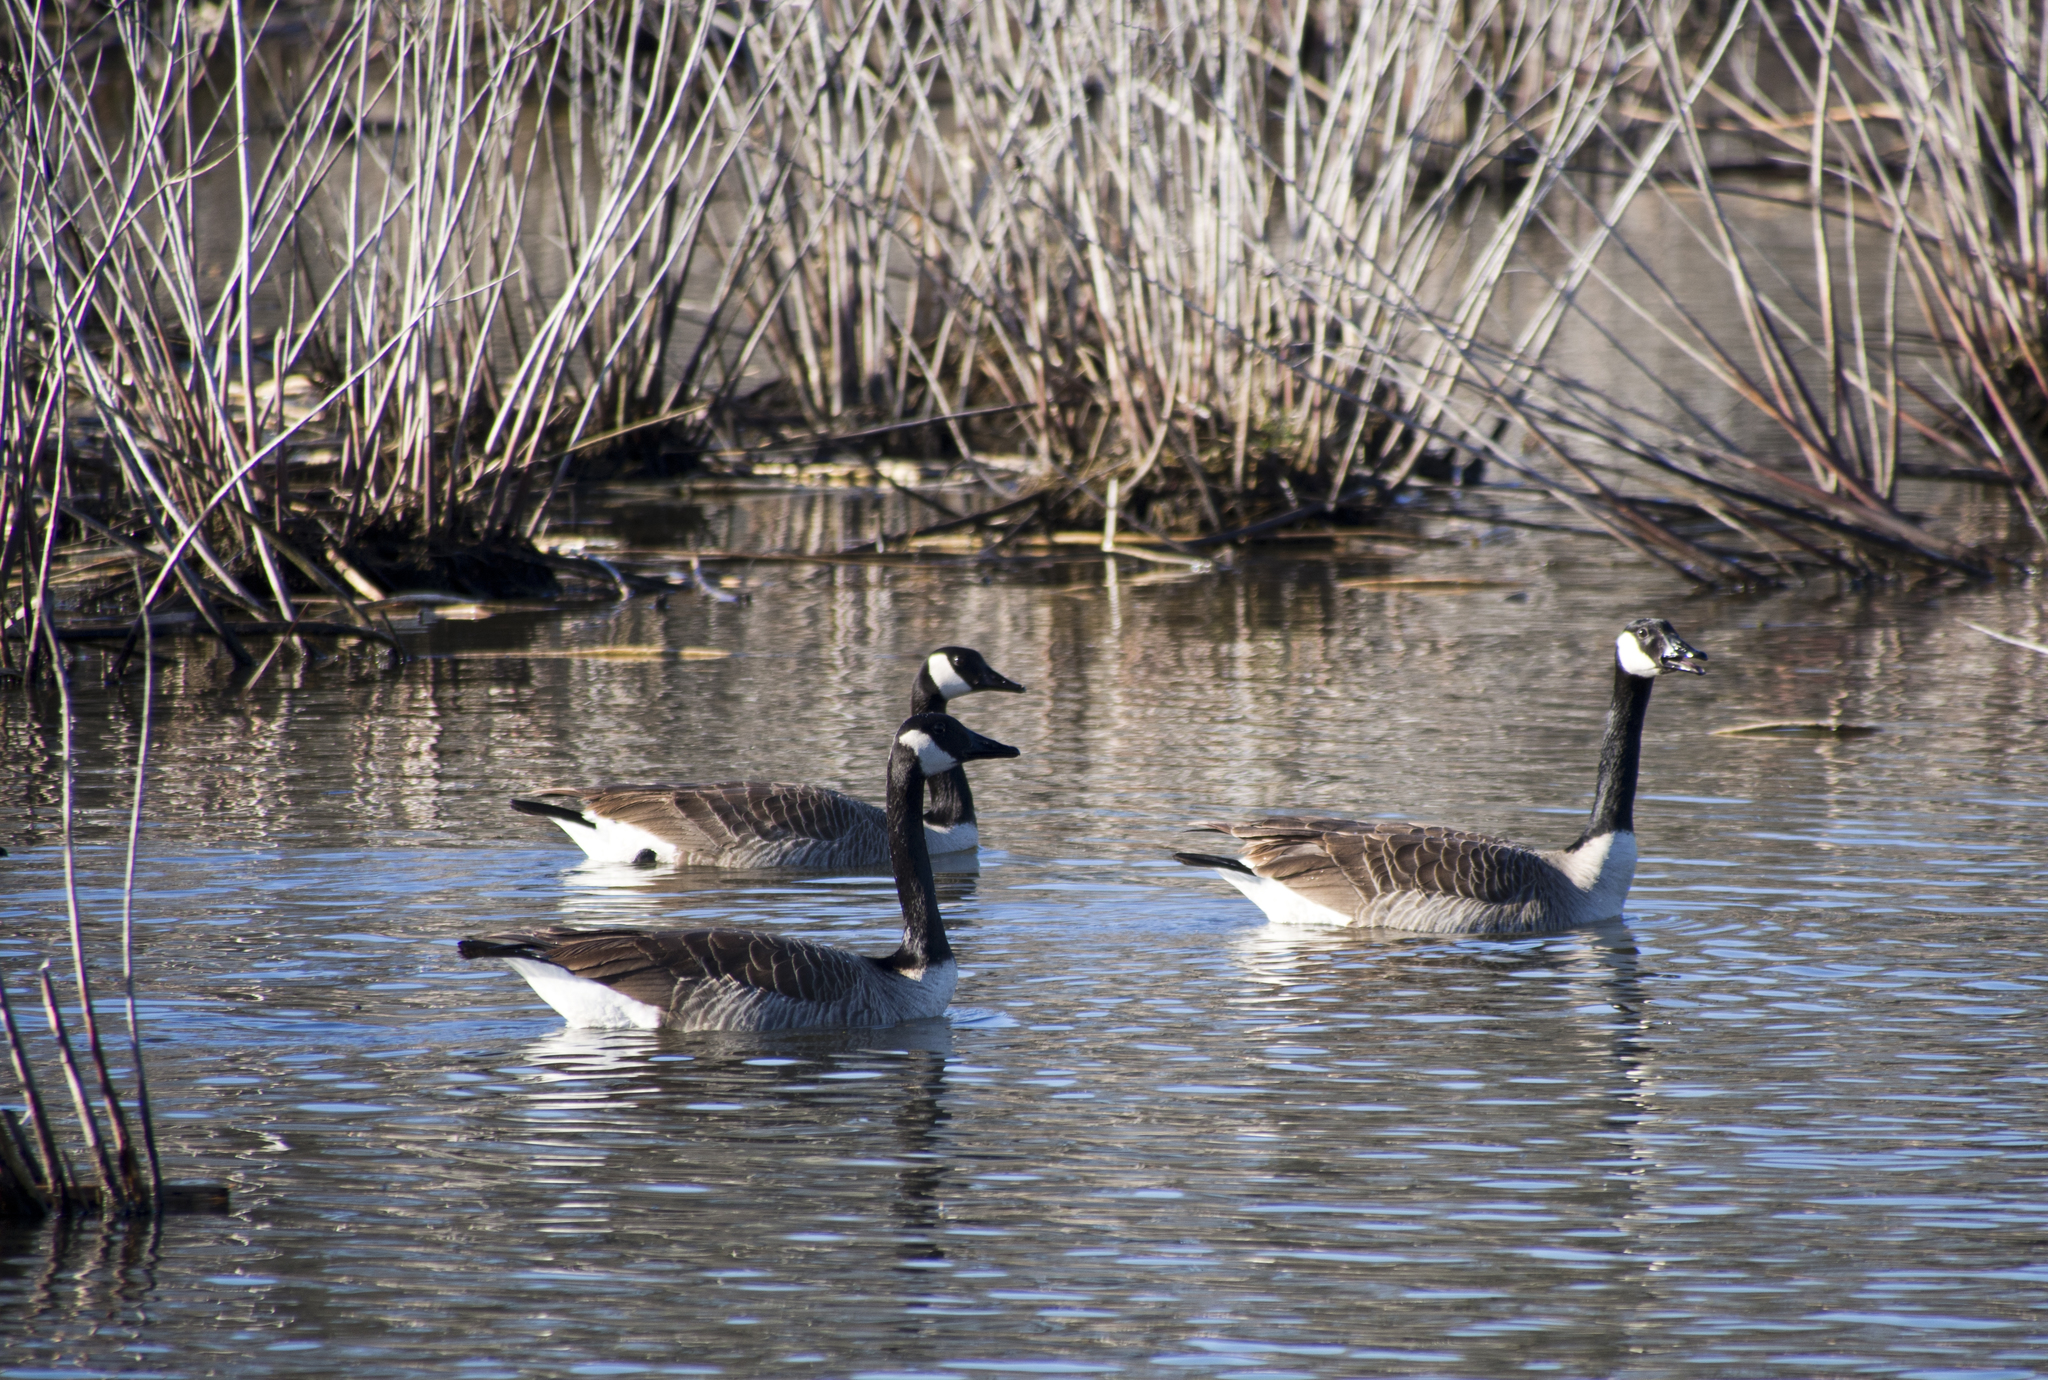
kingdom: Animalia
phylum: Chordata
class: Aves
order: Anseriformes
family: Anatidae
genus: Branta
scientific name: Branta canadensis
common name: Canada goose
